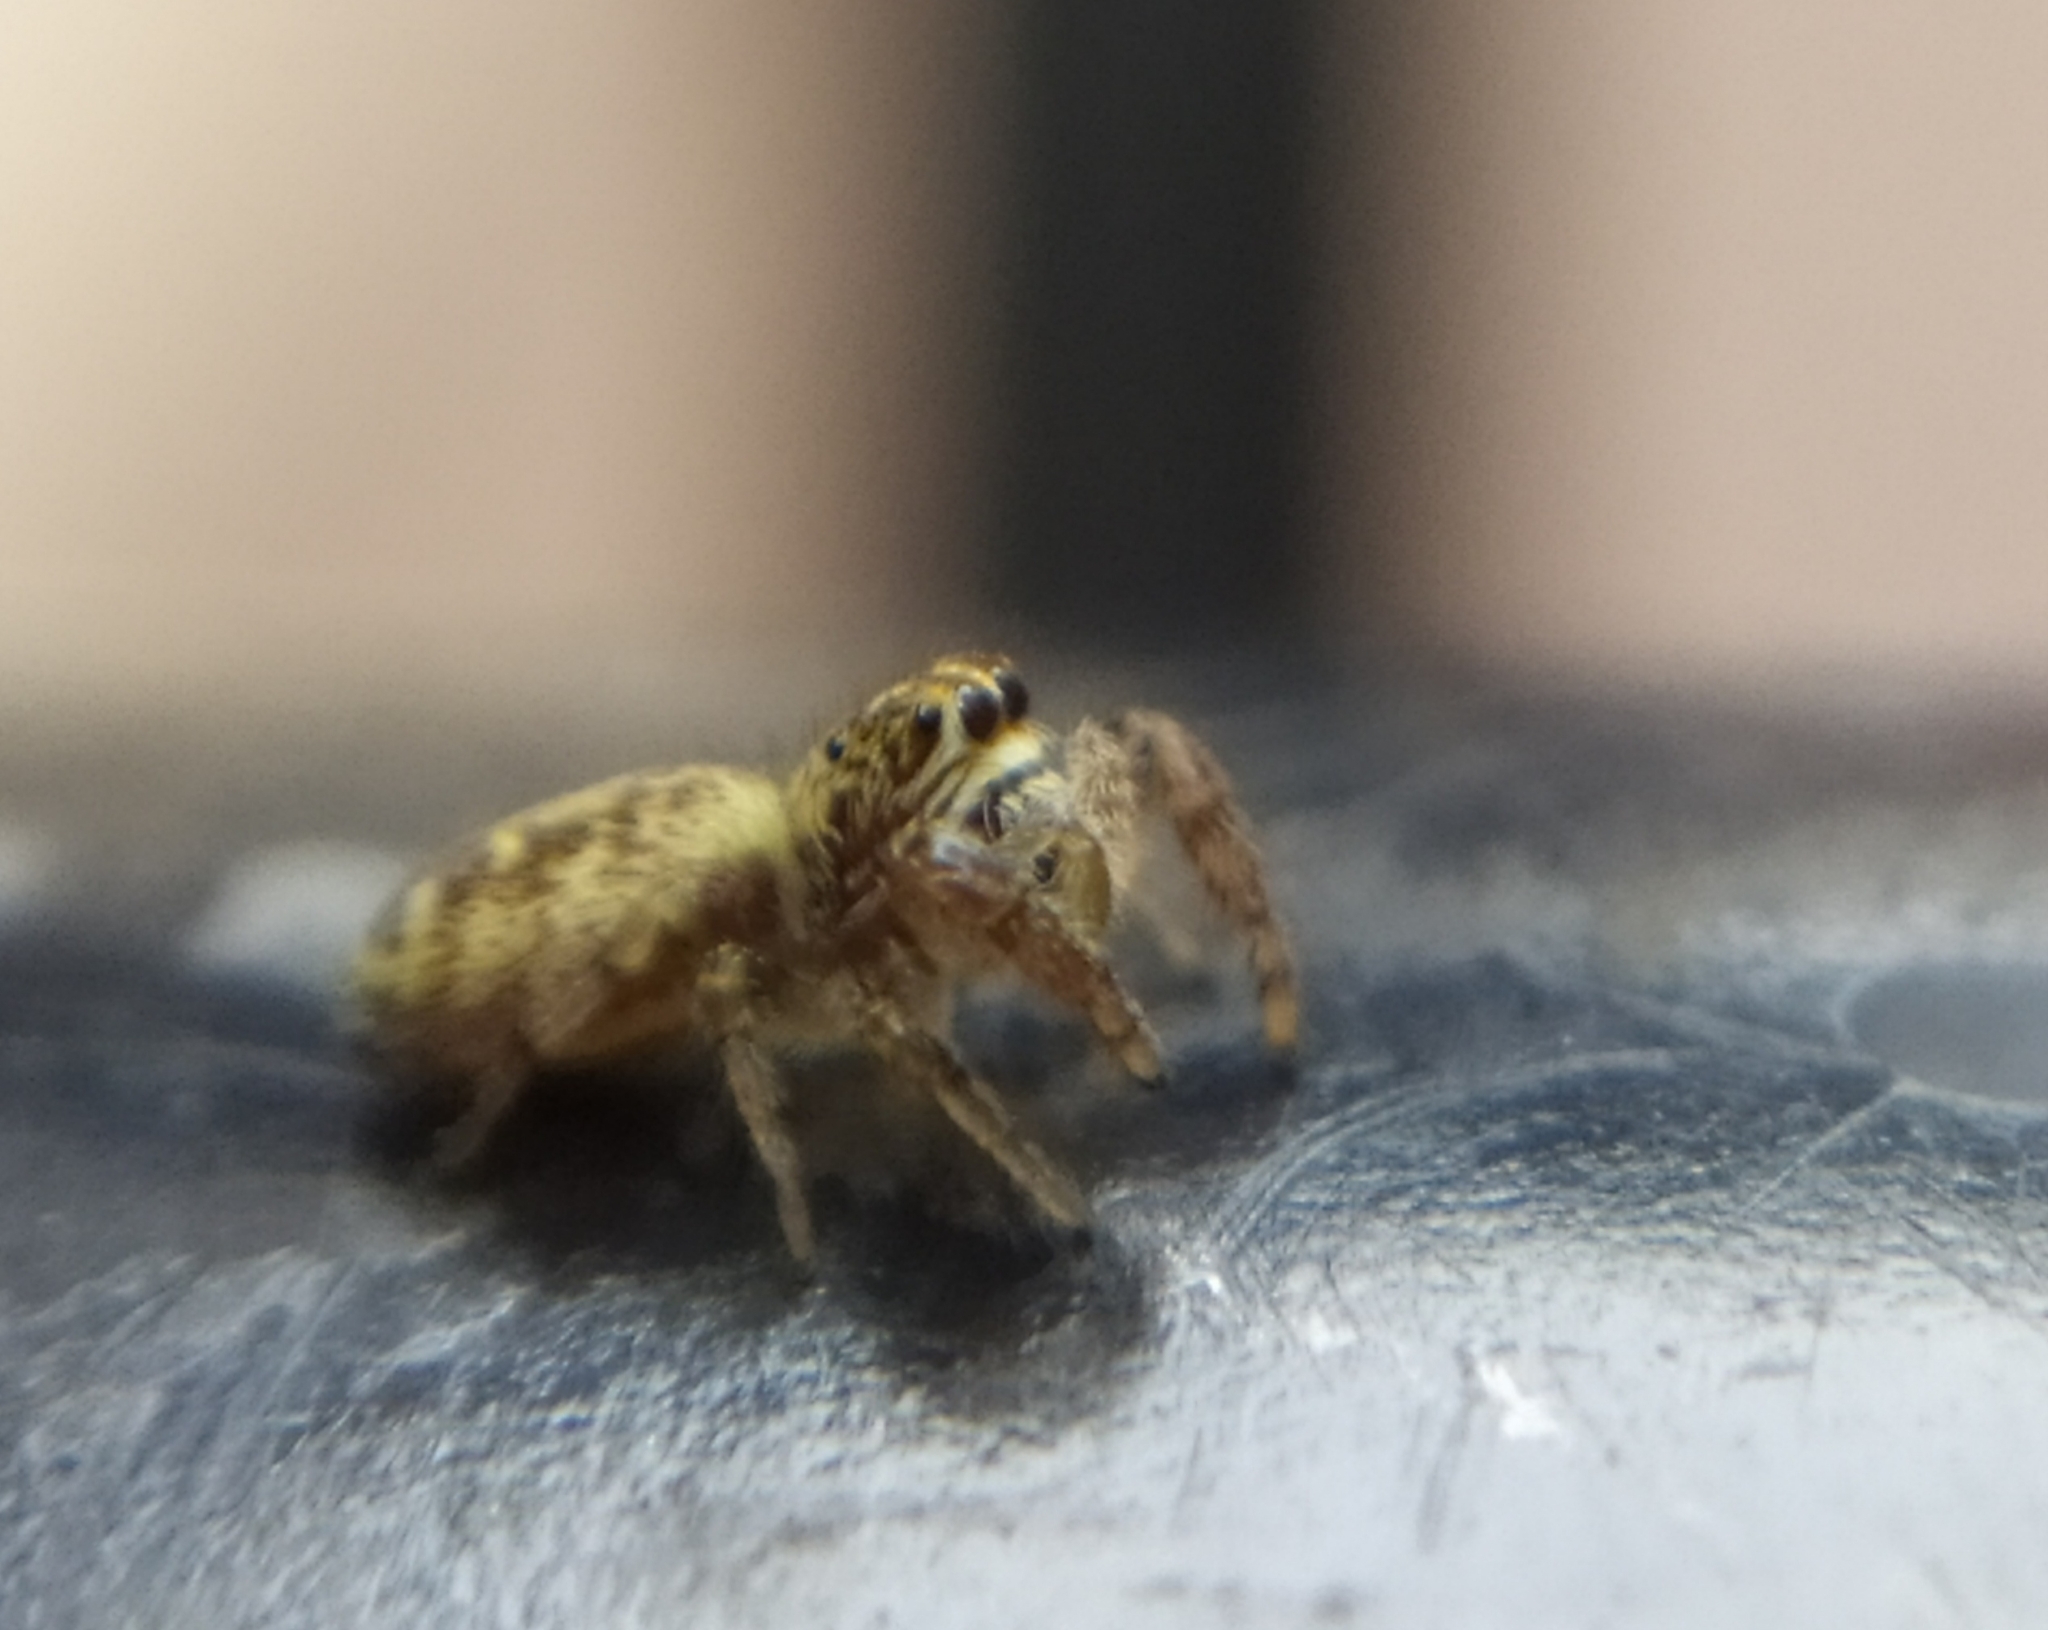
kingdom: Animalia
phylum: Arthropoda
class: Arachnida
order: Araneae
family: Salticidae
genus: Macaroeris
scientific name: Macaroeris nidicolens
